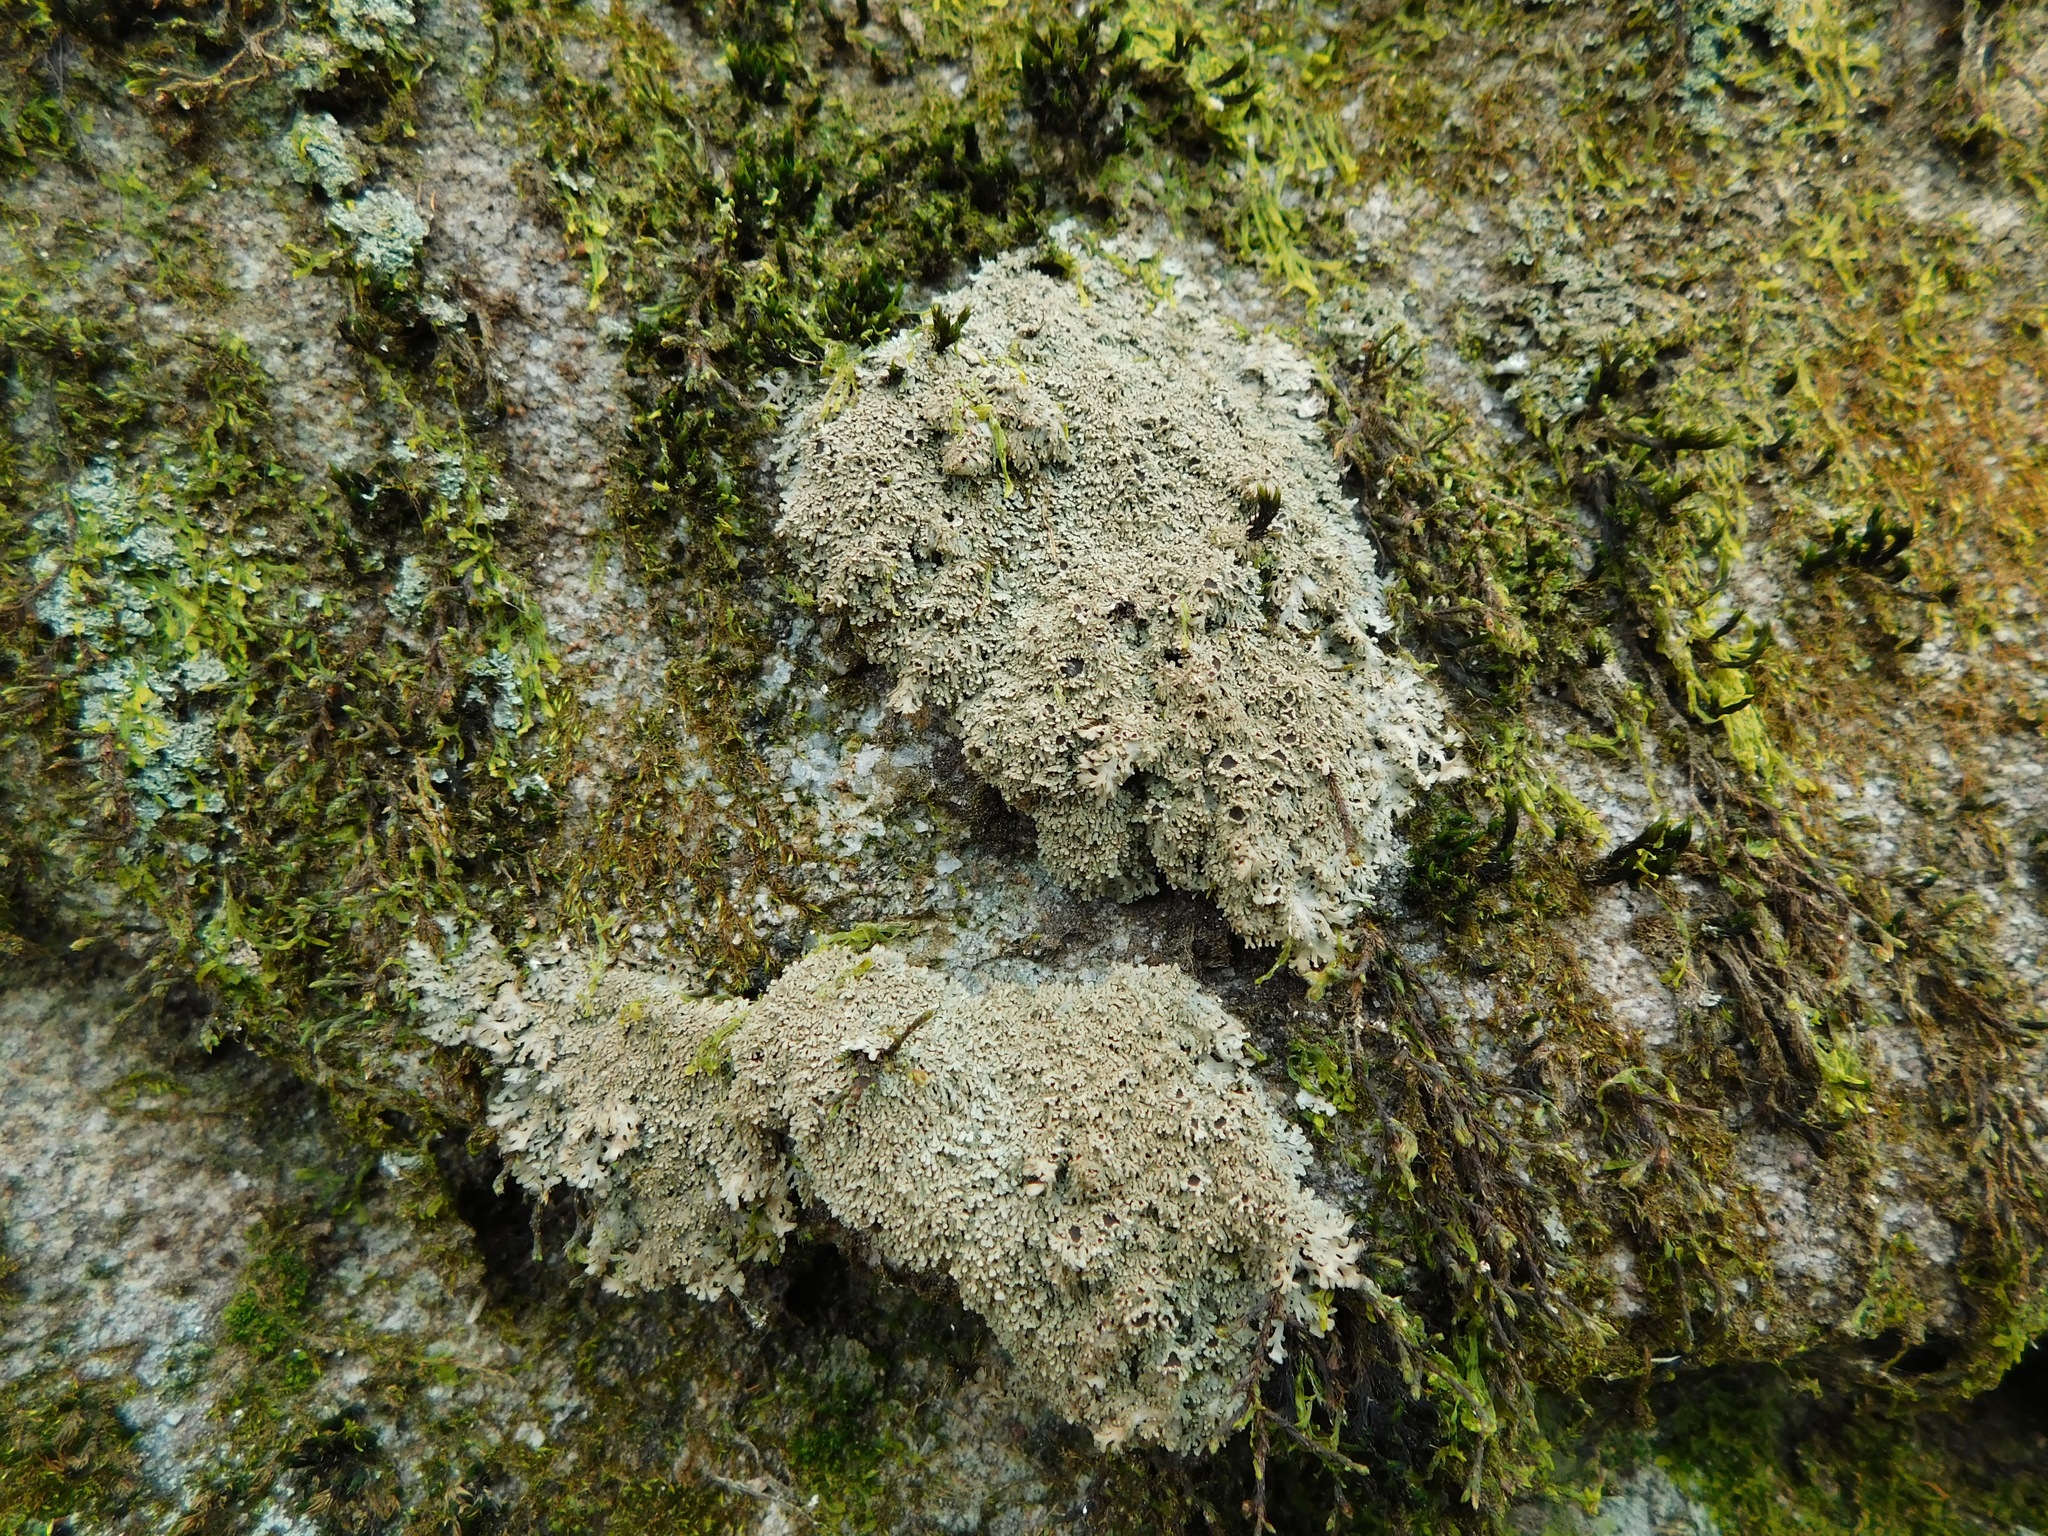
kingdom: Fungi
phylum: Ascomycota
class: Lecanoromycetes
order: Caliciales
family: Physciaceae
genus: Kurokawia
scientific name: Kurokawia palmulata
